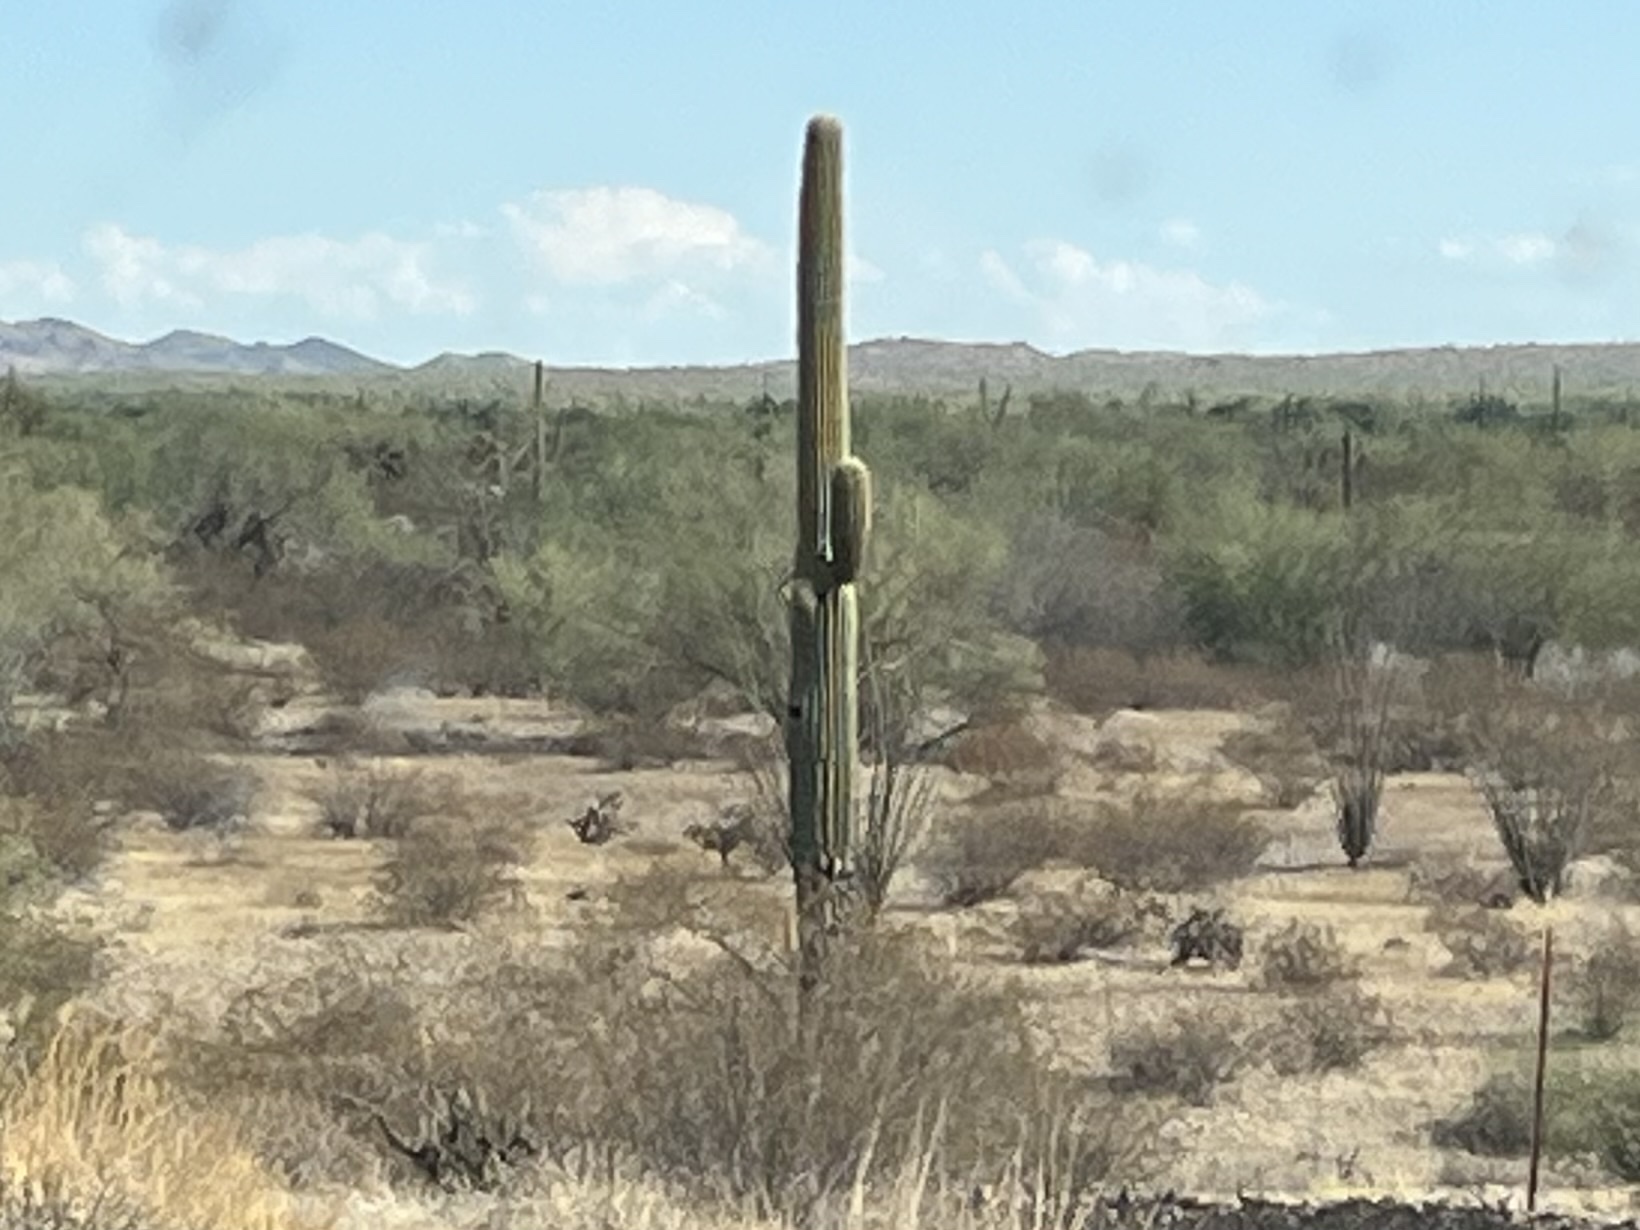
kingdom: Plantae
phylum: Tracheophyta
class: Magnoliopsida
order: Caryophyllales
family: Cactaceae
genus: Carnegiea
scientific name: Carnegiea gigantea
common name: Saguaro
